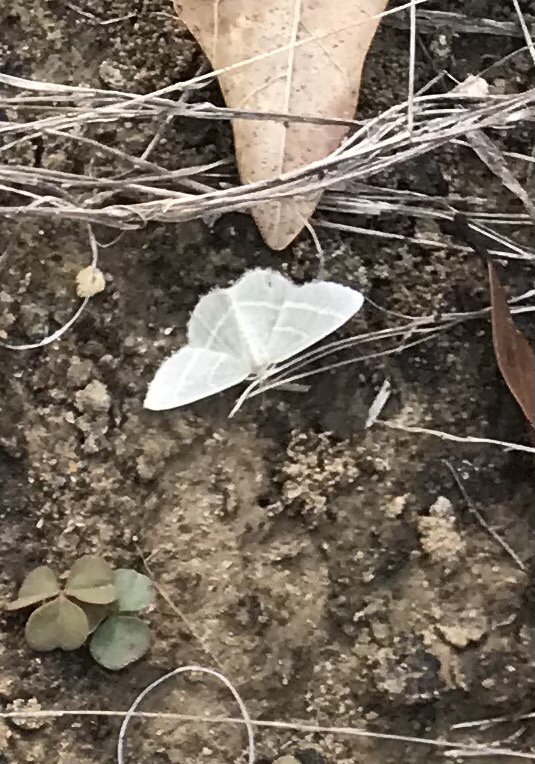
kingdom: Animalia
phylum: Arthropoda
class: Insecta
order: Lepidoptera
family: Geometridae
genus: Chlorochlamys
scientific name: Chlorochlamys chloroleucaria
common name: Blackberry looper
